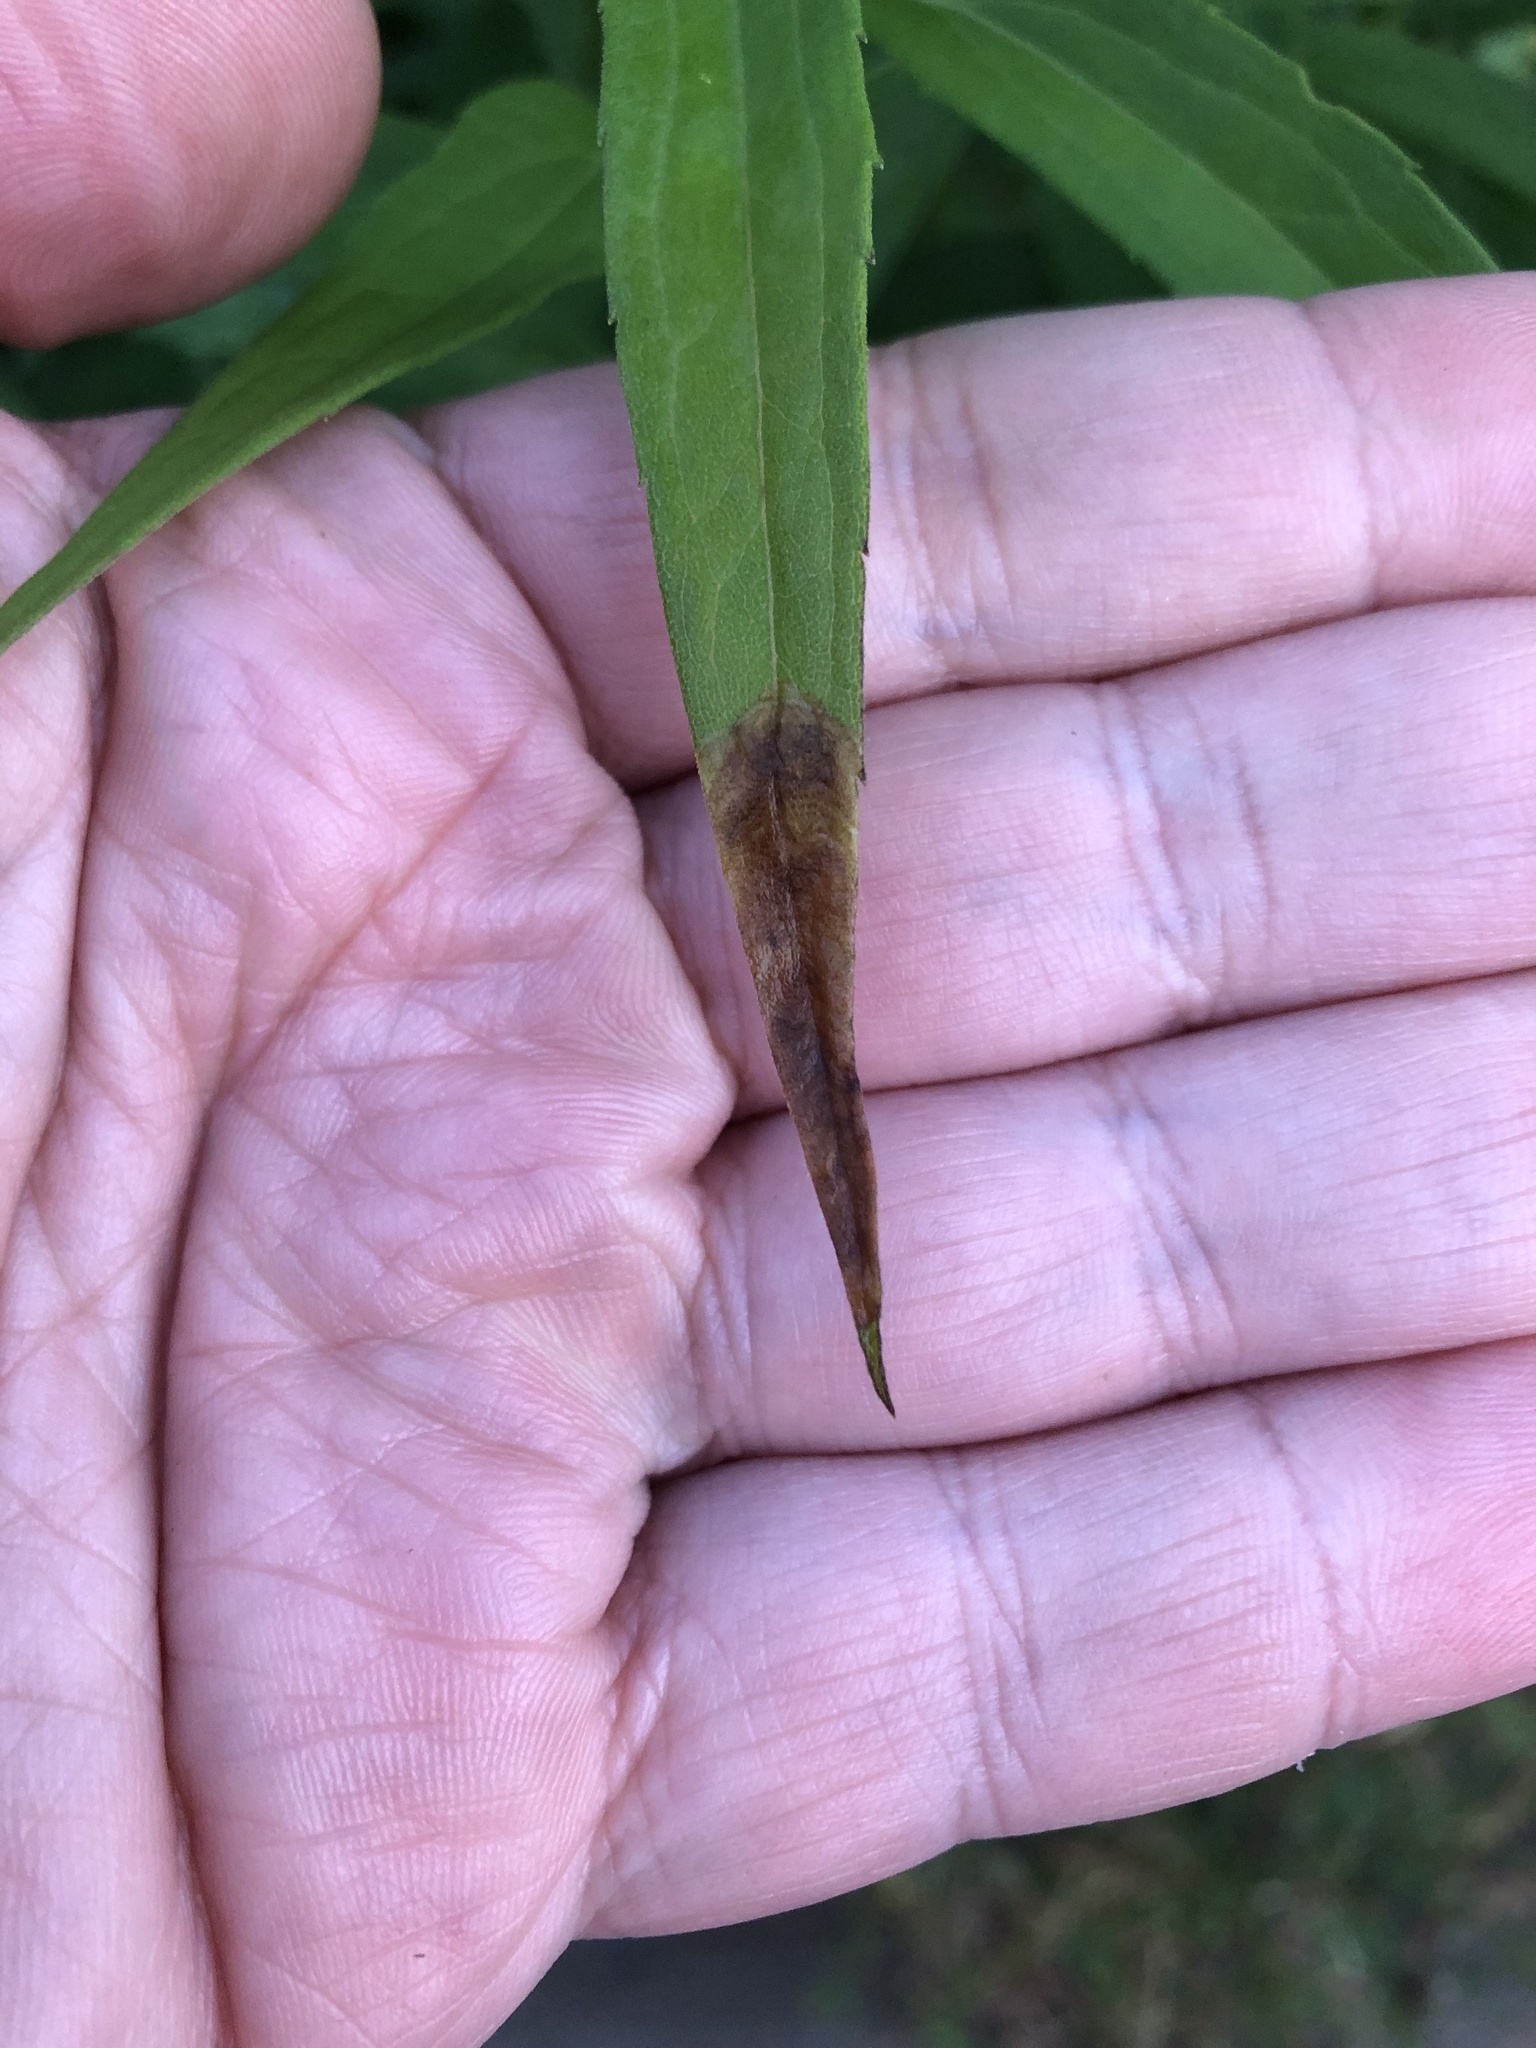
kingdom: Animalia
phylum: Arthropoda
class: Insecta
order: Diptera
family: Agromyzidae
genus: Nemorimyza
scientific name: Nemorimyza posticata
